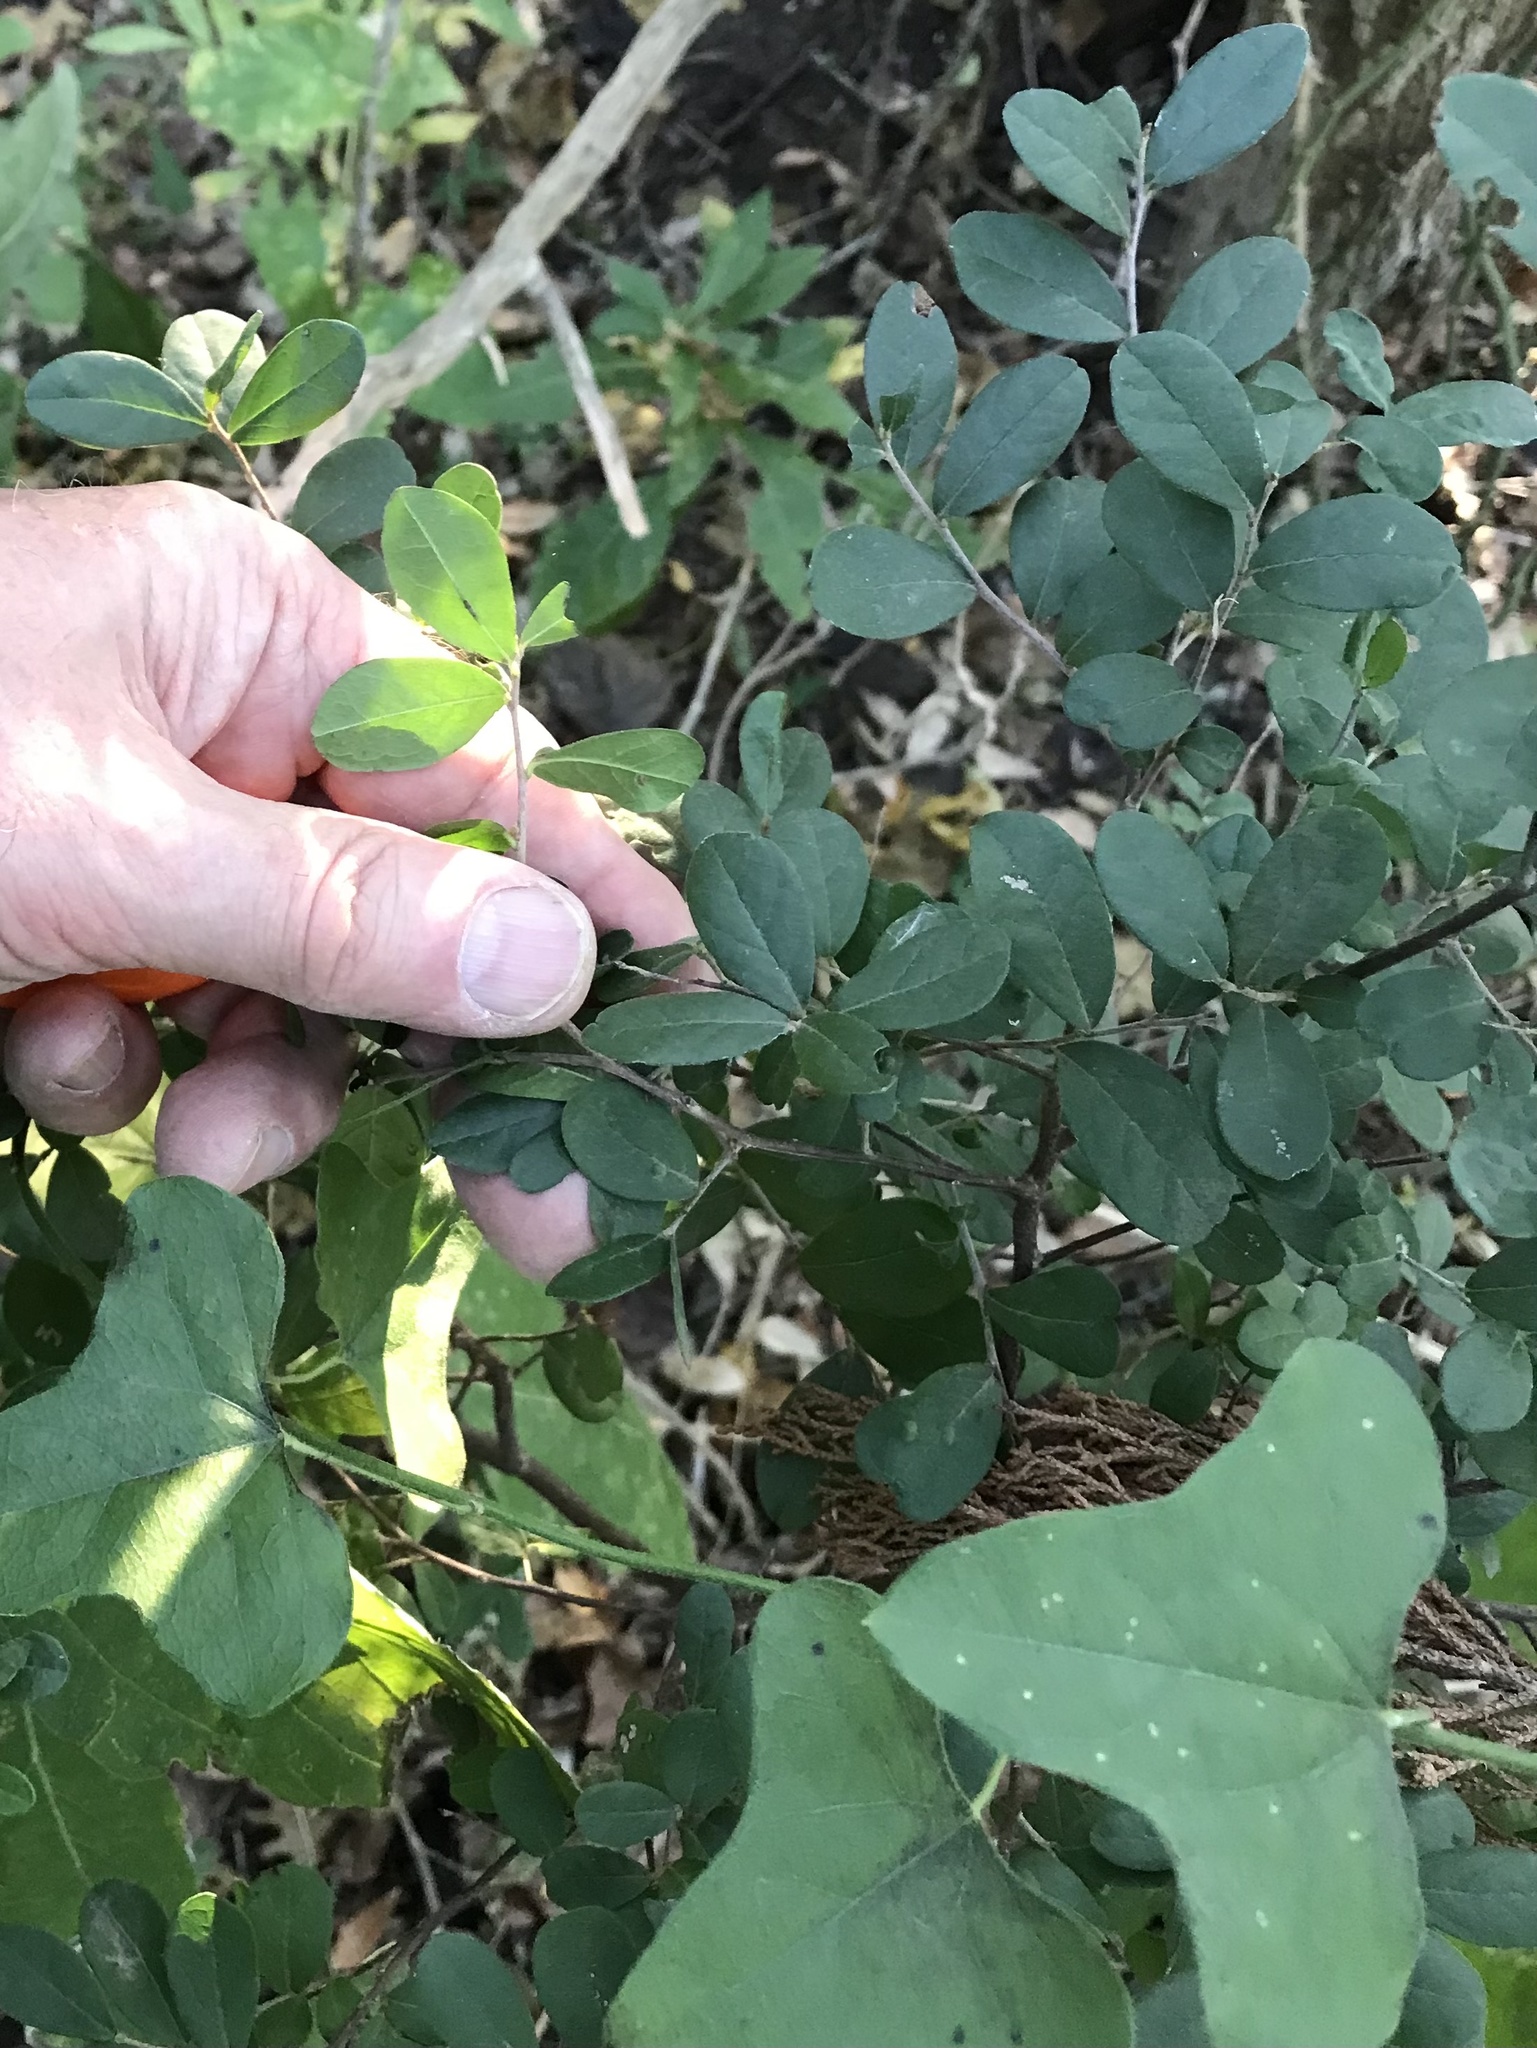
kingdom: Plantae
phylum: Tracheophyta
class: Magnoliopsida
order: Ericales
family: Ebenaceae
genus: Diospyros
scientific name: Diospyros texana
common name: Texas persimmon
